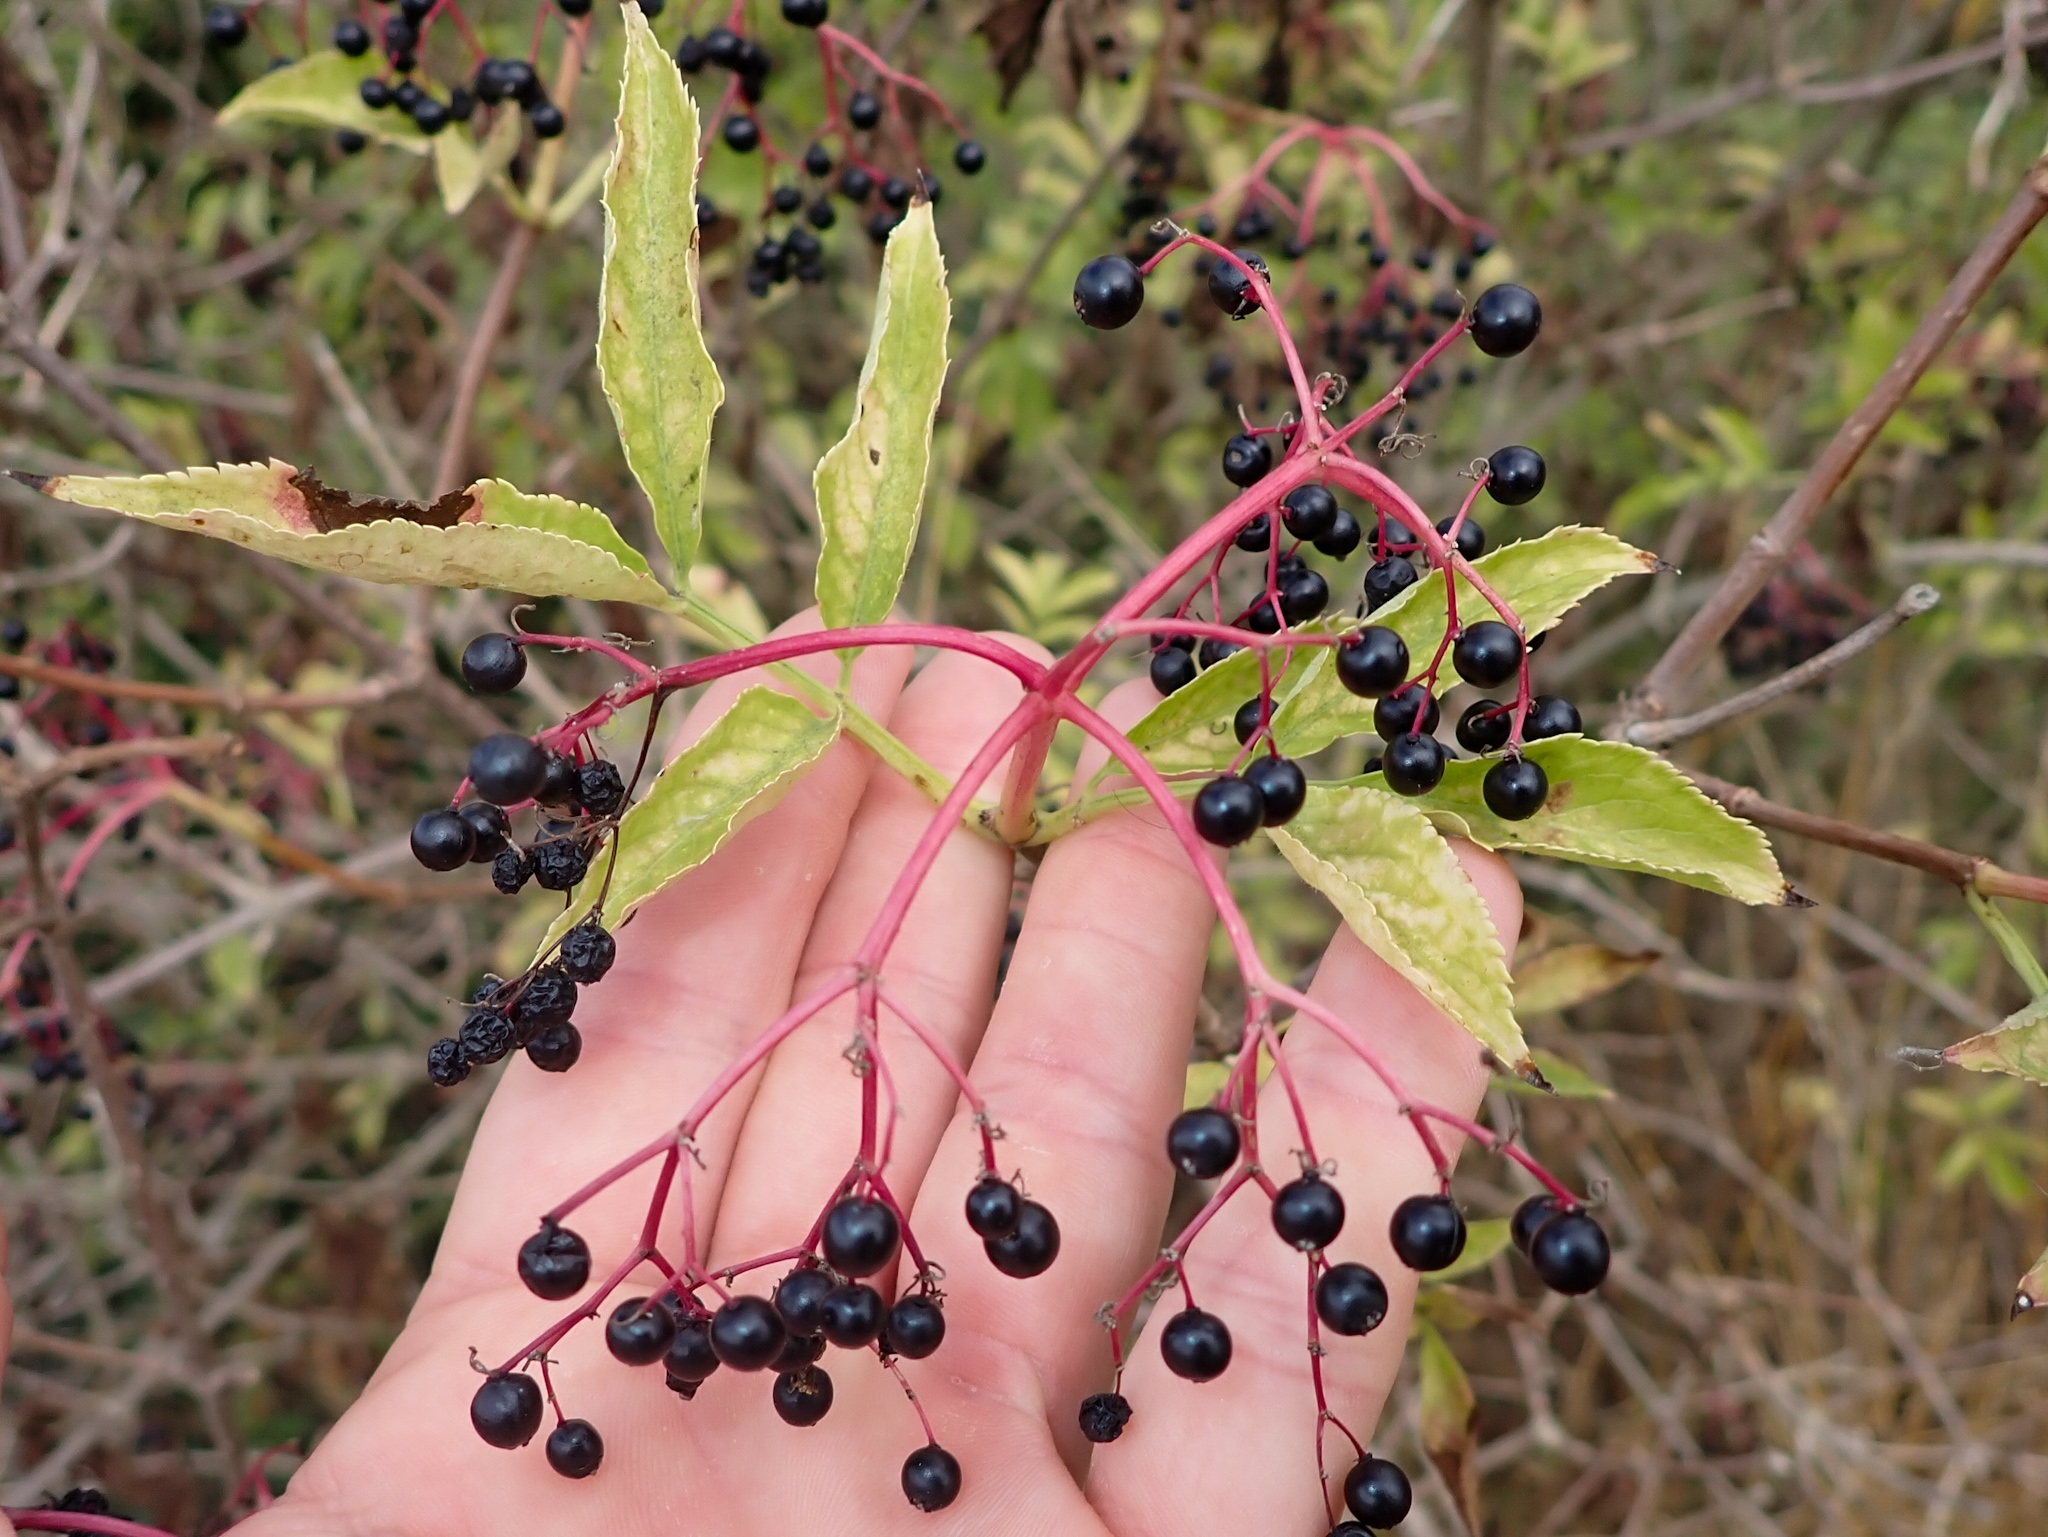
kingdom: Plantae
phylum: Tracheophyta
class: Magnoliopsida
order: Dipsacales
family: Viburnaceae
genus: Sambucus
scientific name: Sambucus nigra
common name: Elder
